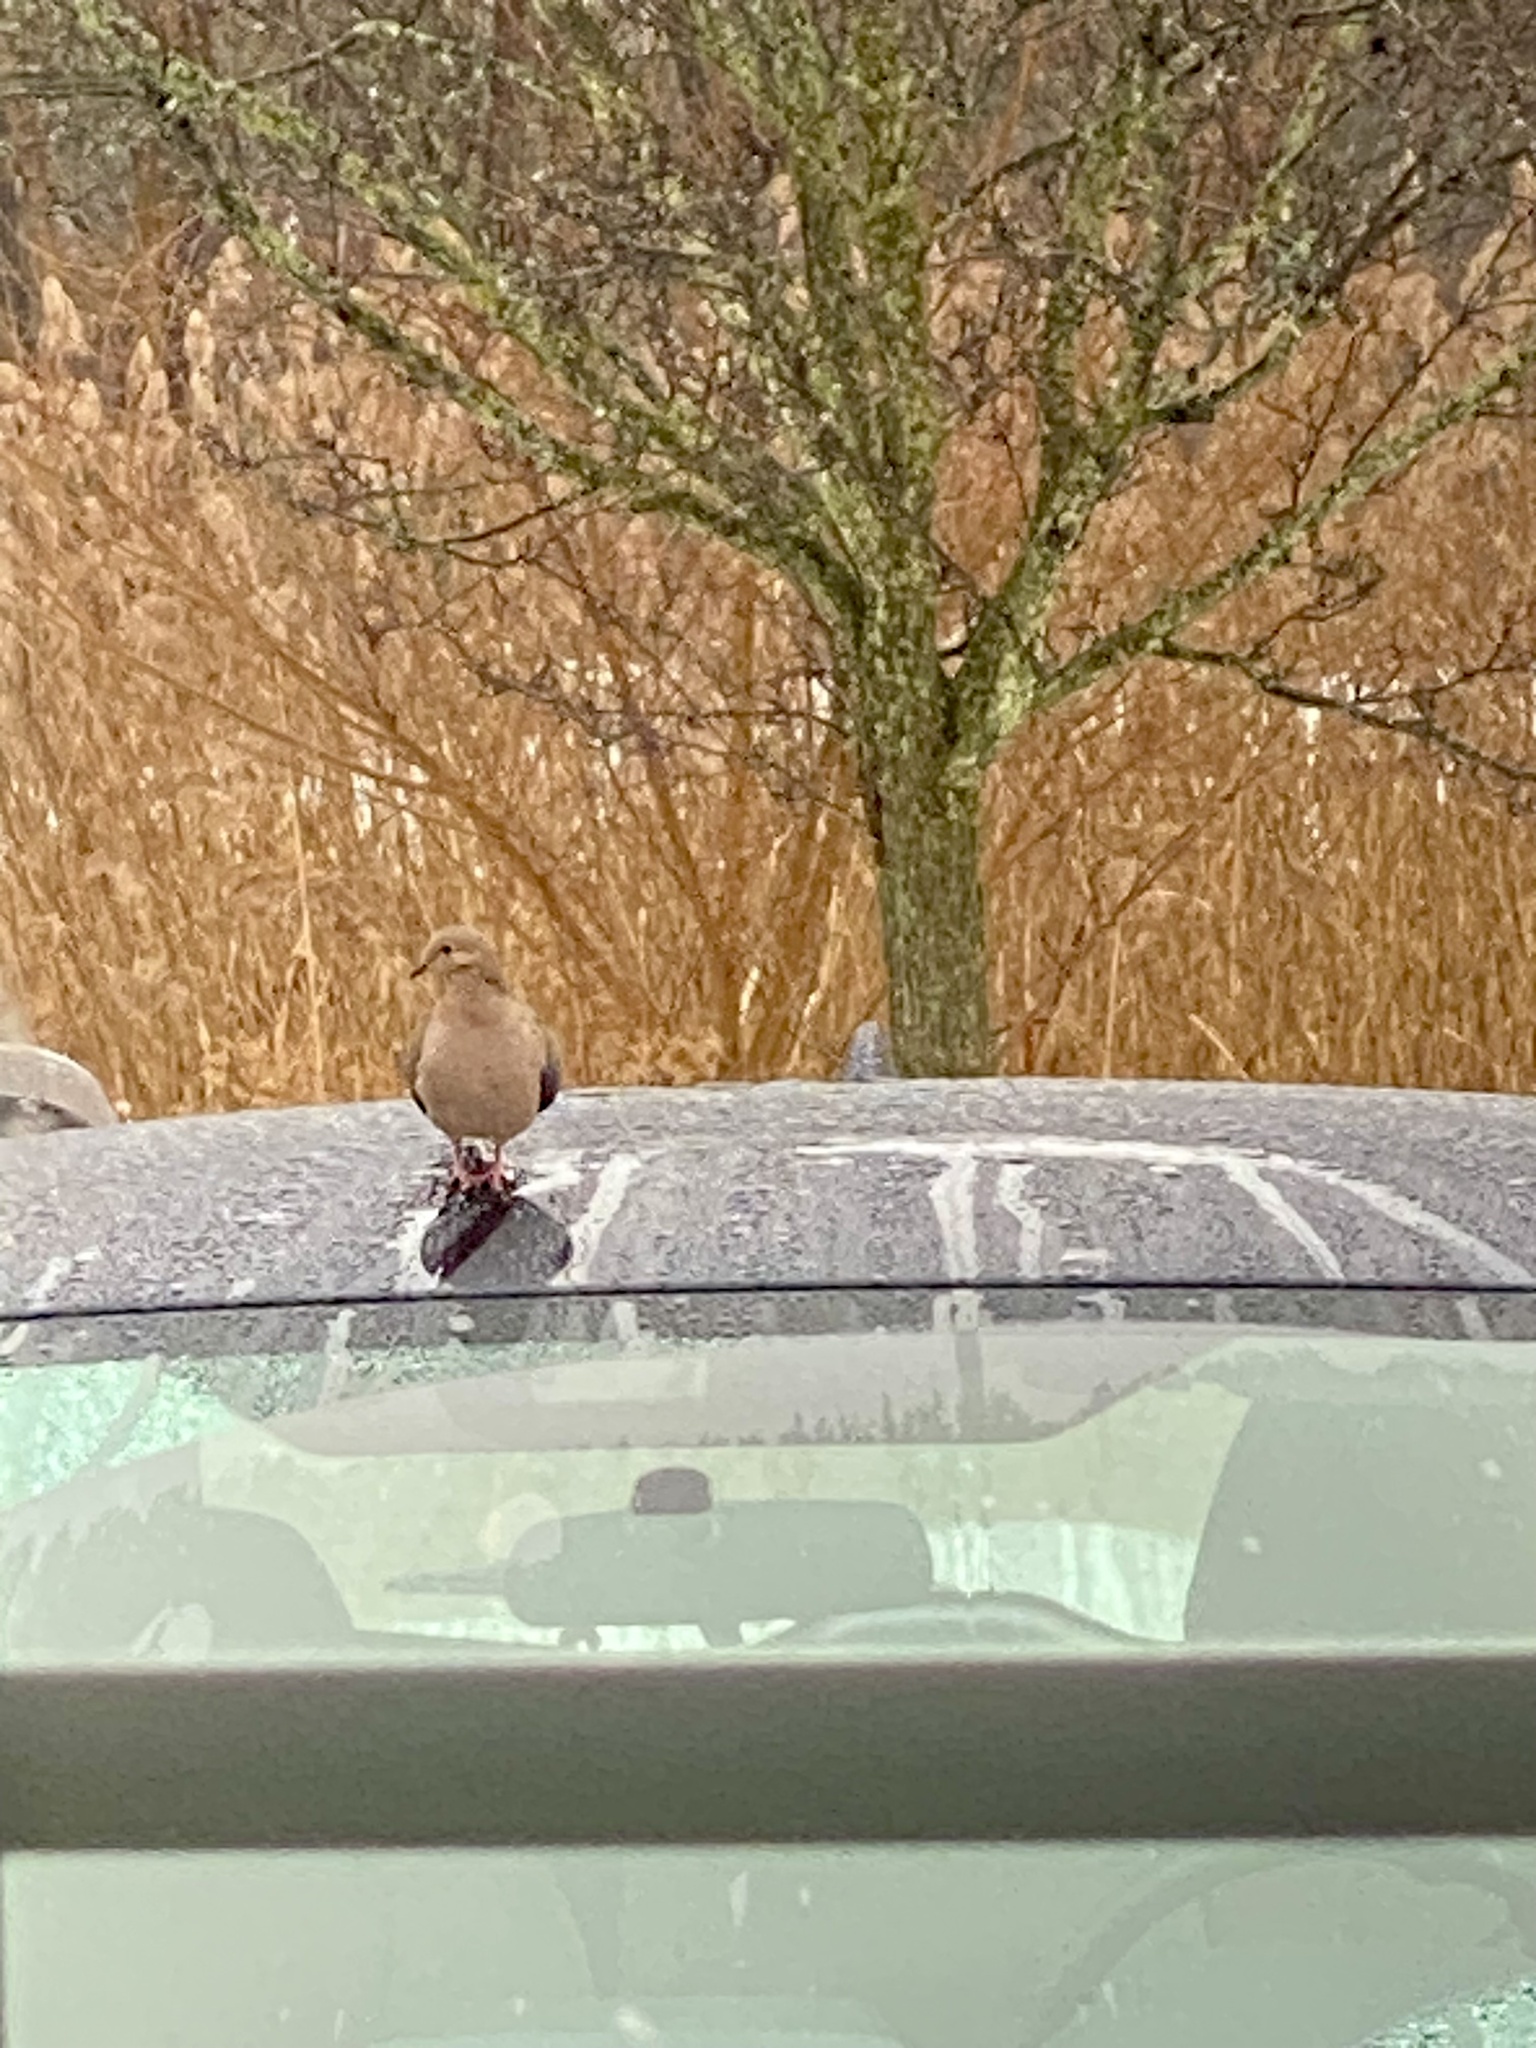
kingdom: Animalia
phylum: Chordata
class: Aves
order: Columbiformes
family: Columbidae
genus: Zenaida
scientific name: Zenaida macroura
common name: Mourning dove
